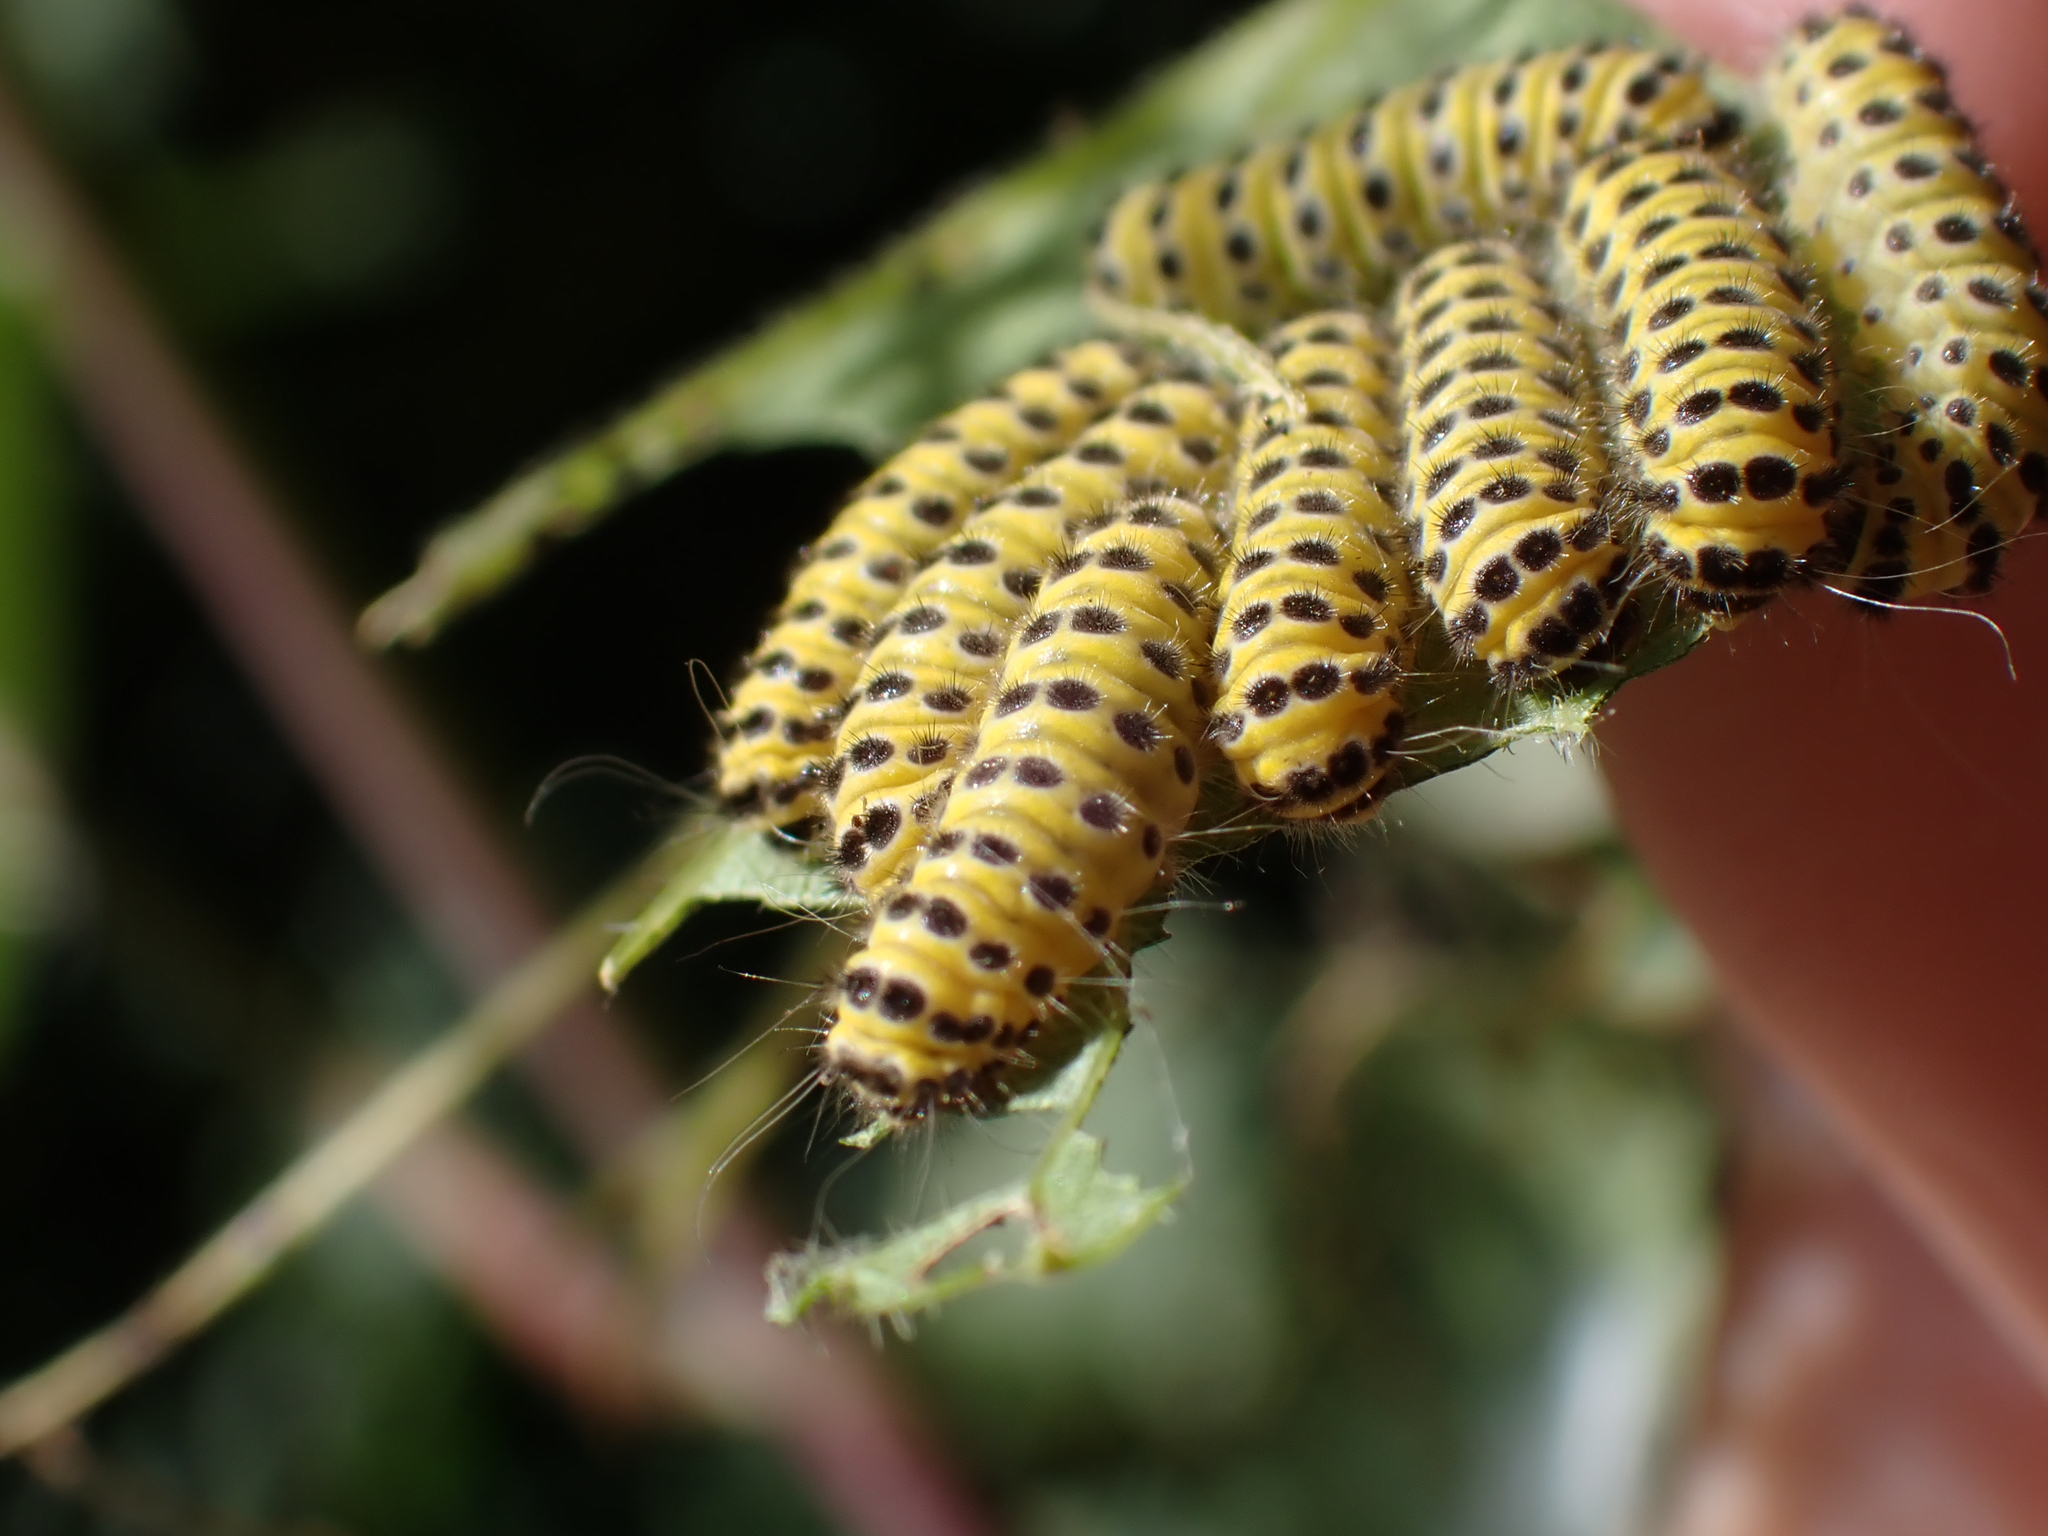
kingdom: Animalia
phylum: Arthropoda
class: Insecta
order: Lepidoptera
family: Zygaenidae
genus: Harrisina
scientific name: Harrisina americana
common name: Grapeleaf skeletonizer moth
